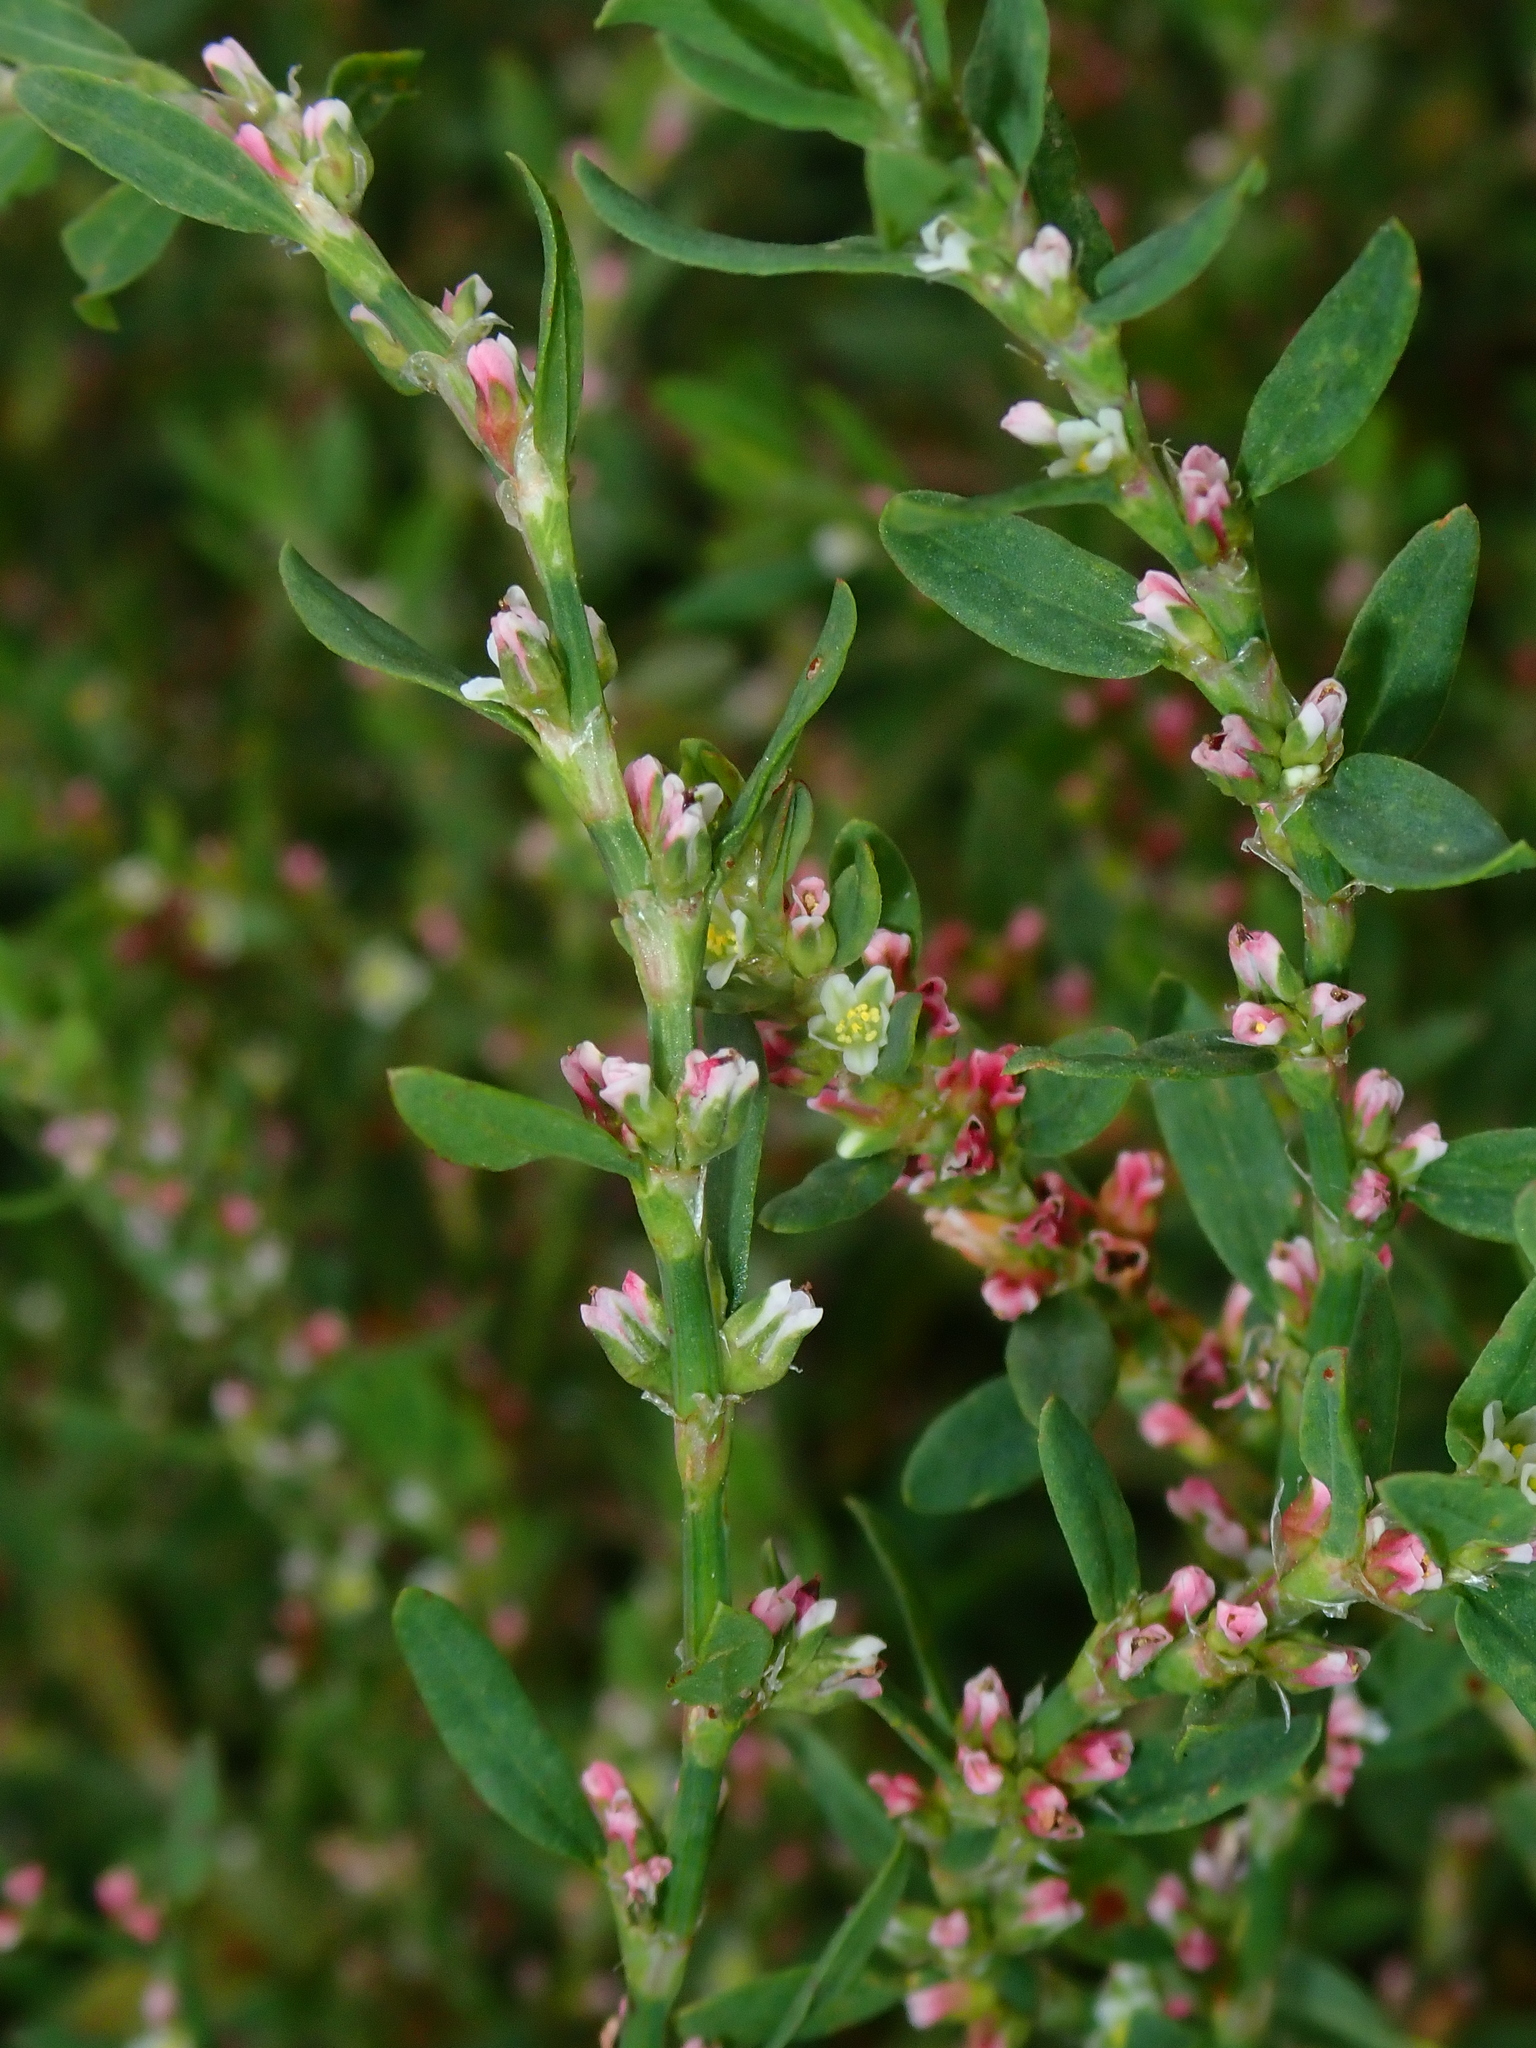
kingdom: Plantae
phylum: Tracheophyta
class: Magnoliopsida
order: Caryophyllales
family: Polygonaceae
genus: Polygonum
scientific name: Polygonum aviculare
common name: Prostrate knotweed
